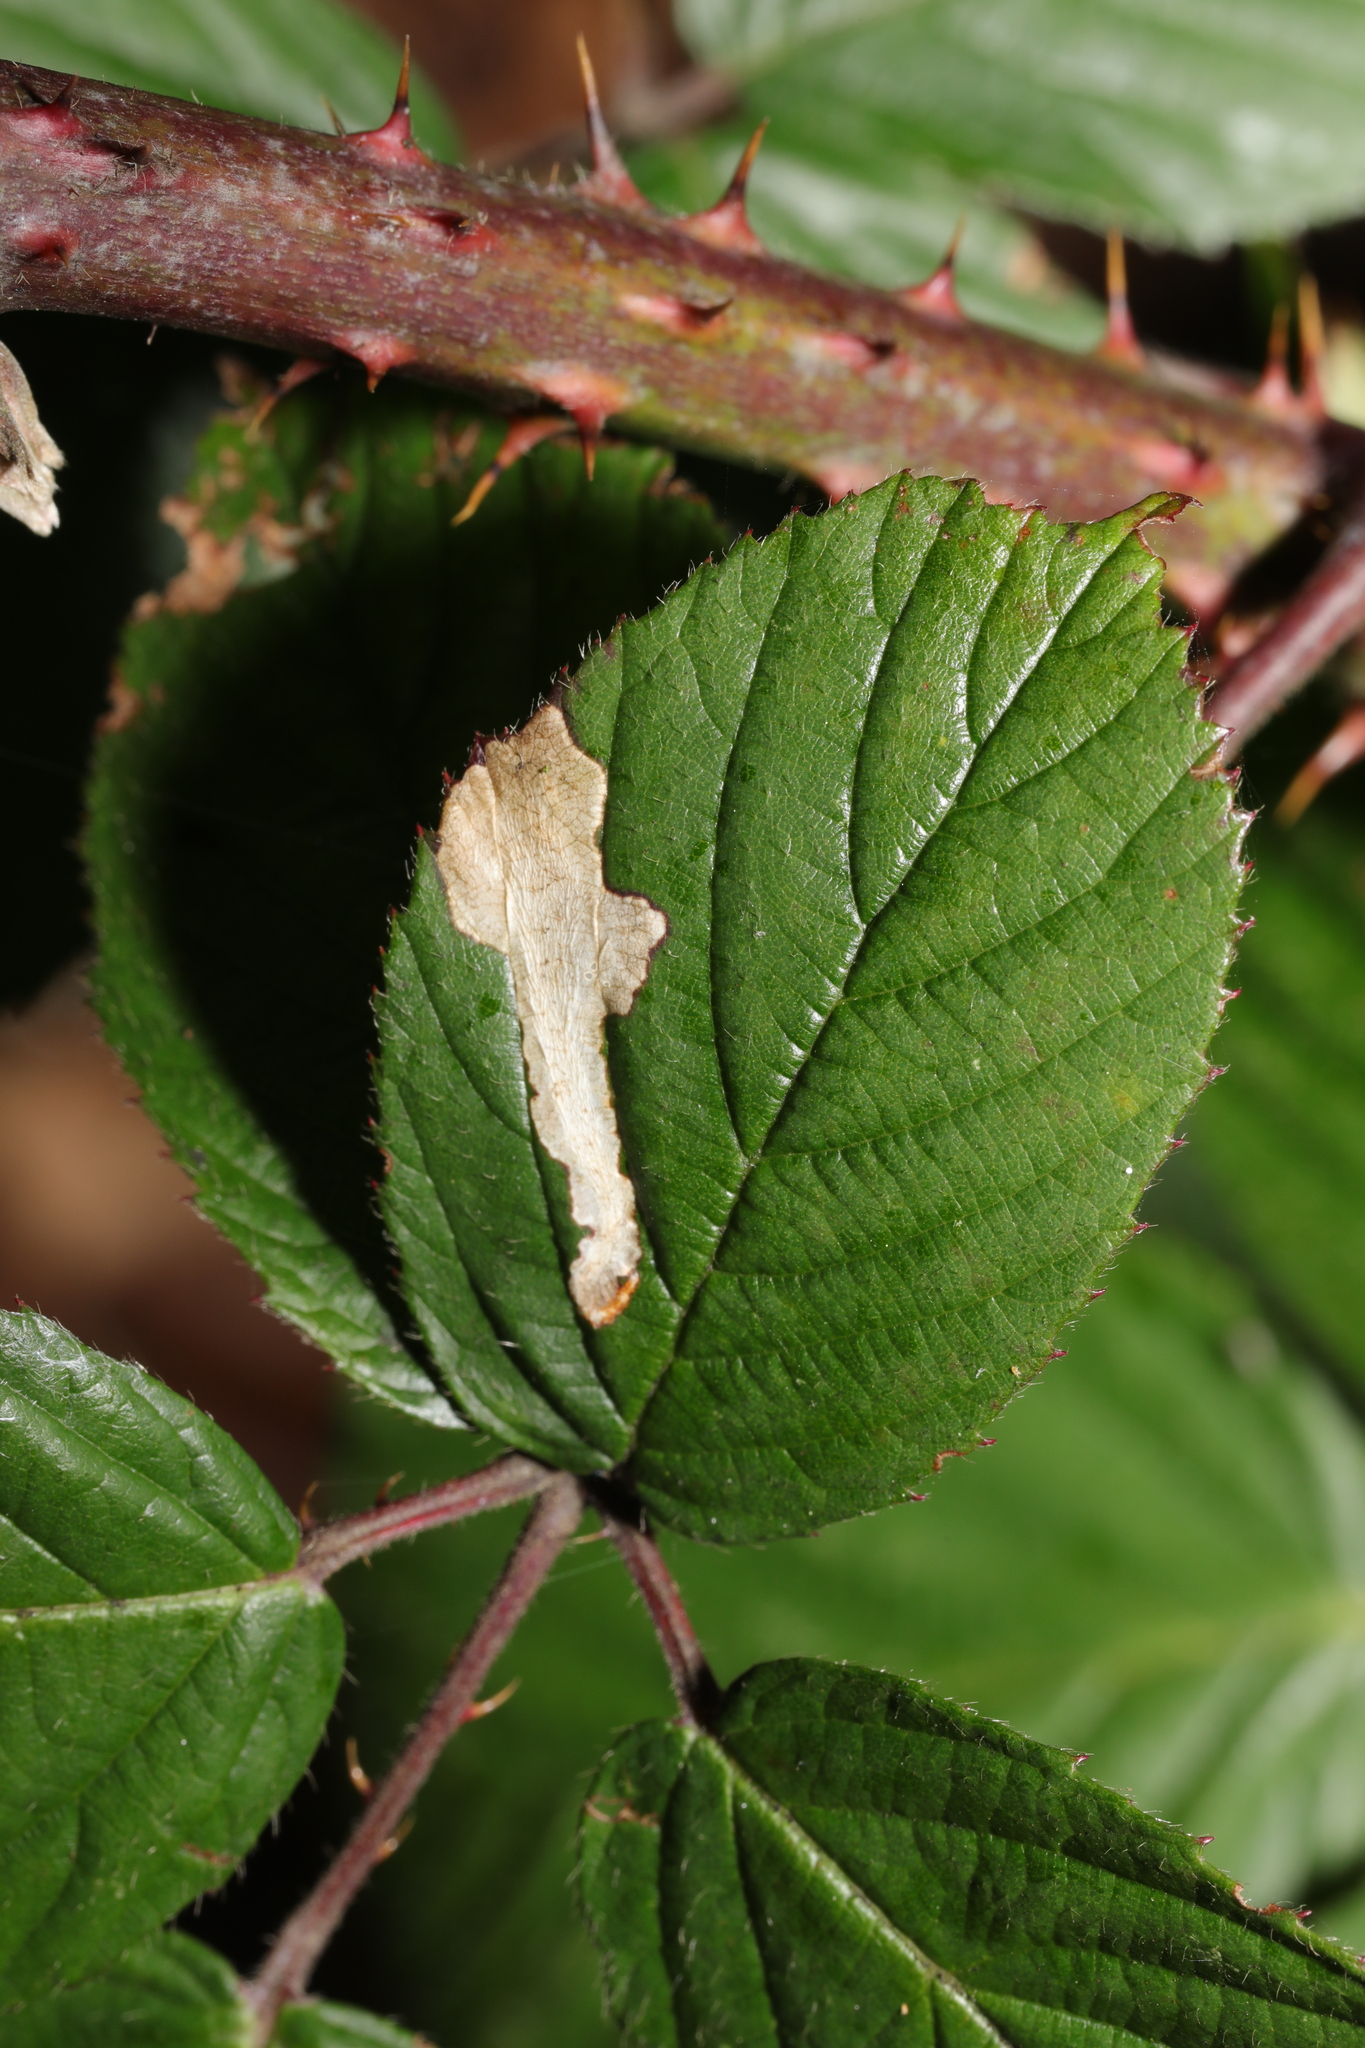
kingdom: Animalia
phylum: Arthropoda
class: Insecta
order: Lepidoptera
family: Tischeriidae
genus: Coptotriche
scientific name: Coptotriche marginea
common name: Bordered carl
